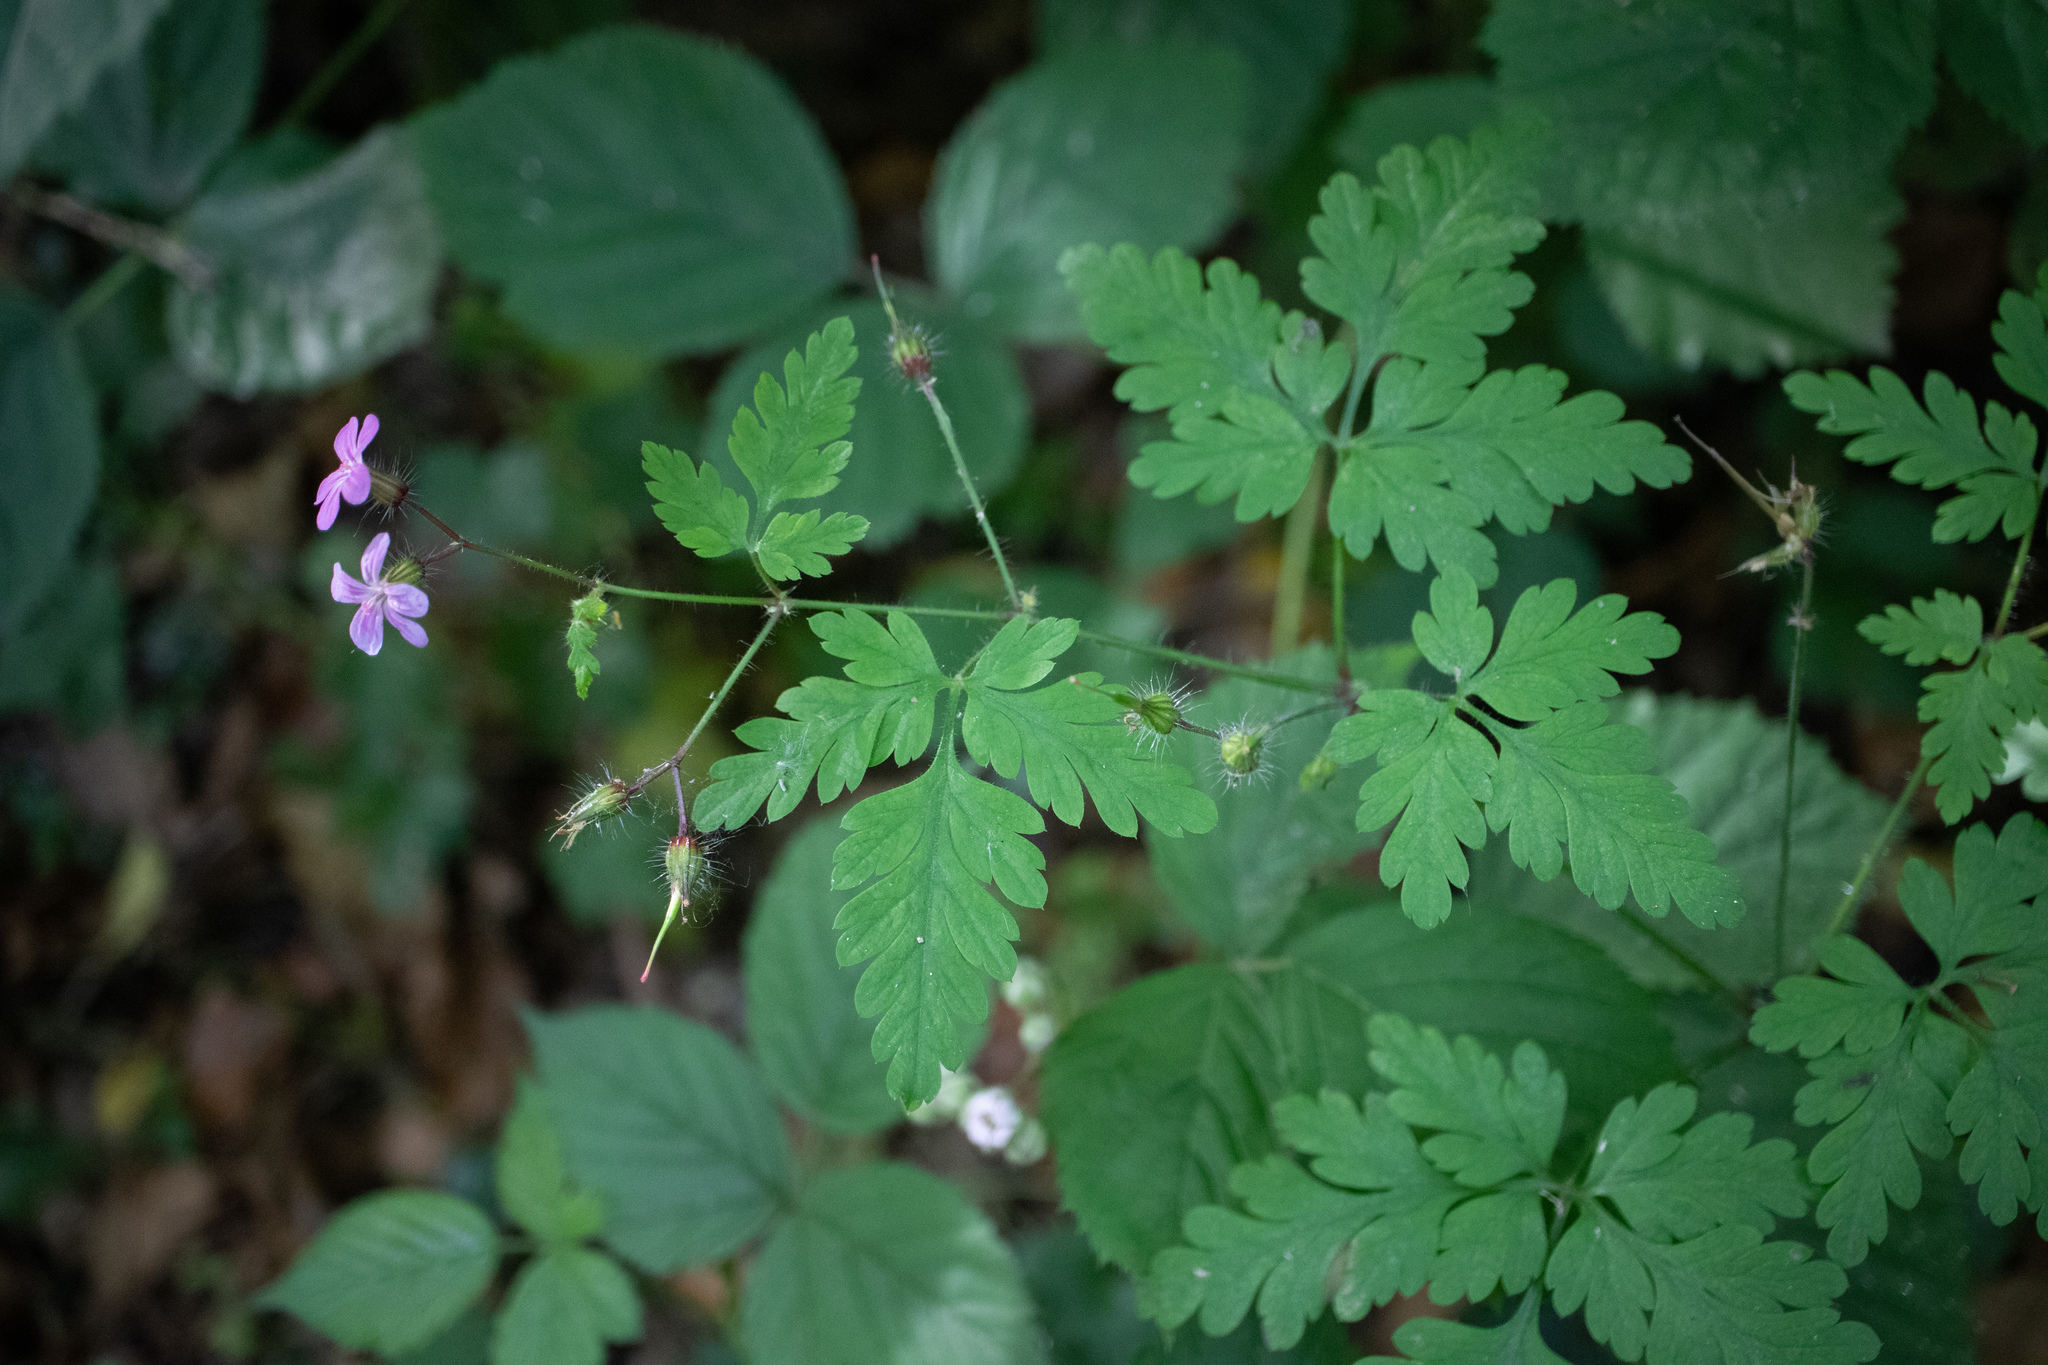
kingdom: Plantae
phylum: Tracheophyta
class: Magnoliopsida
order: Geraniales
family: Geraniaceae
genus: Geranium
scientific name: Geranium robertianum
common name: Herb-robert
